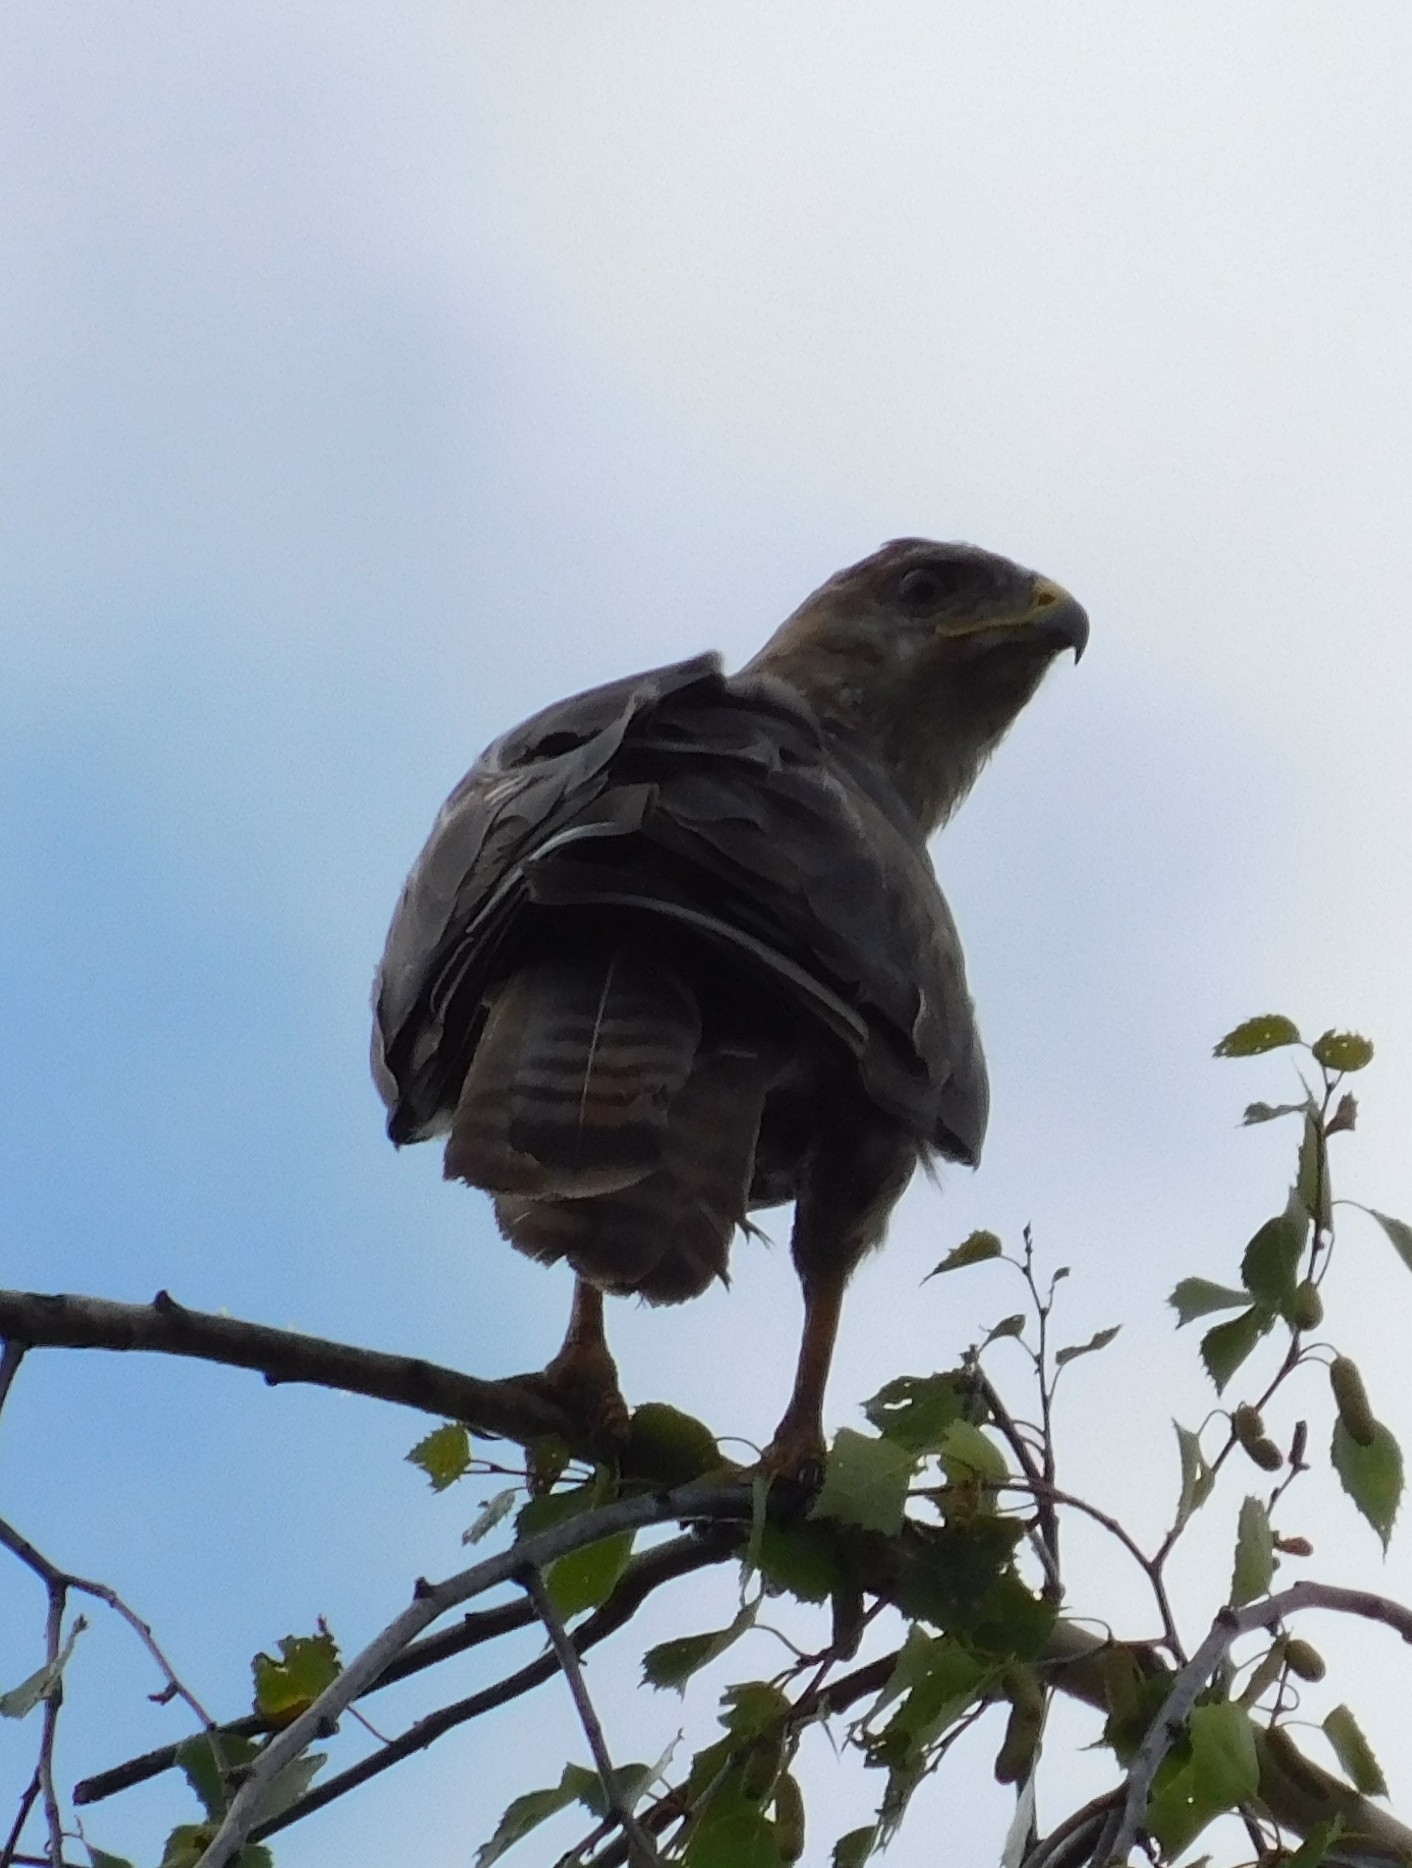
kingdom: Animalia
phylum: Chordata
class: Aves
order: Accipitriformes
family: Accipitridae
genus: Buteo
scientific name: Buteo buteo
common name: Common buzzard
